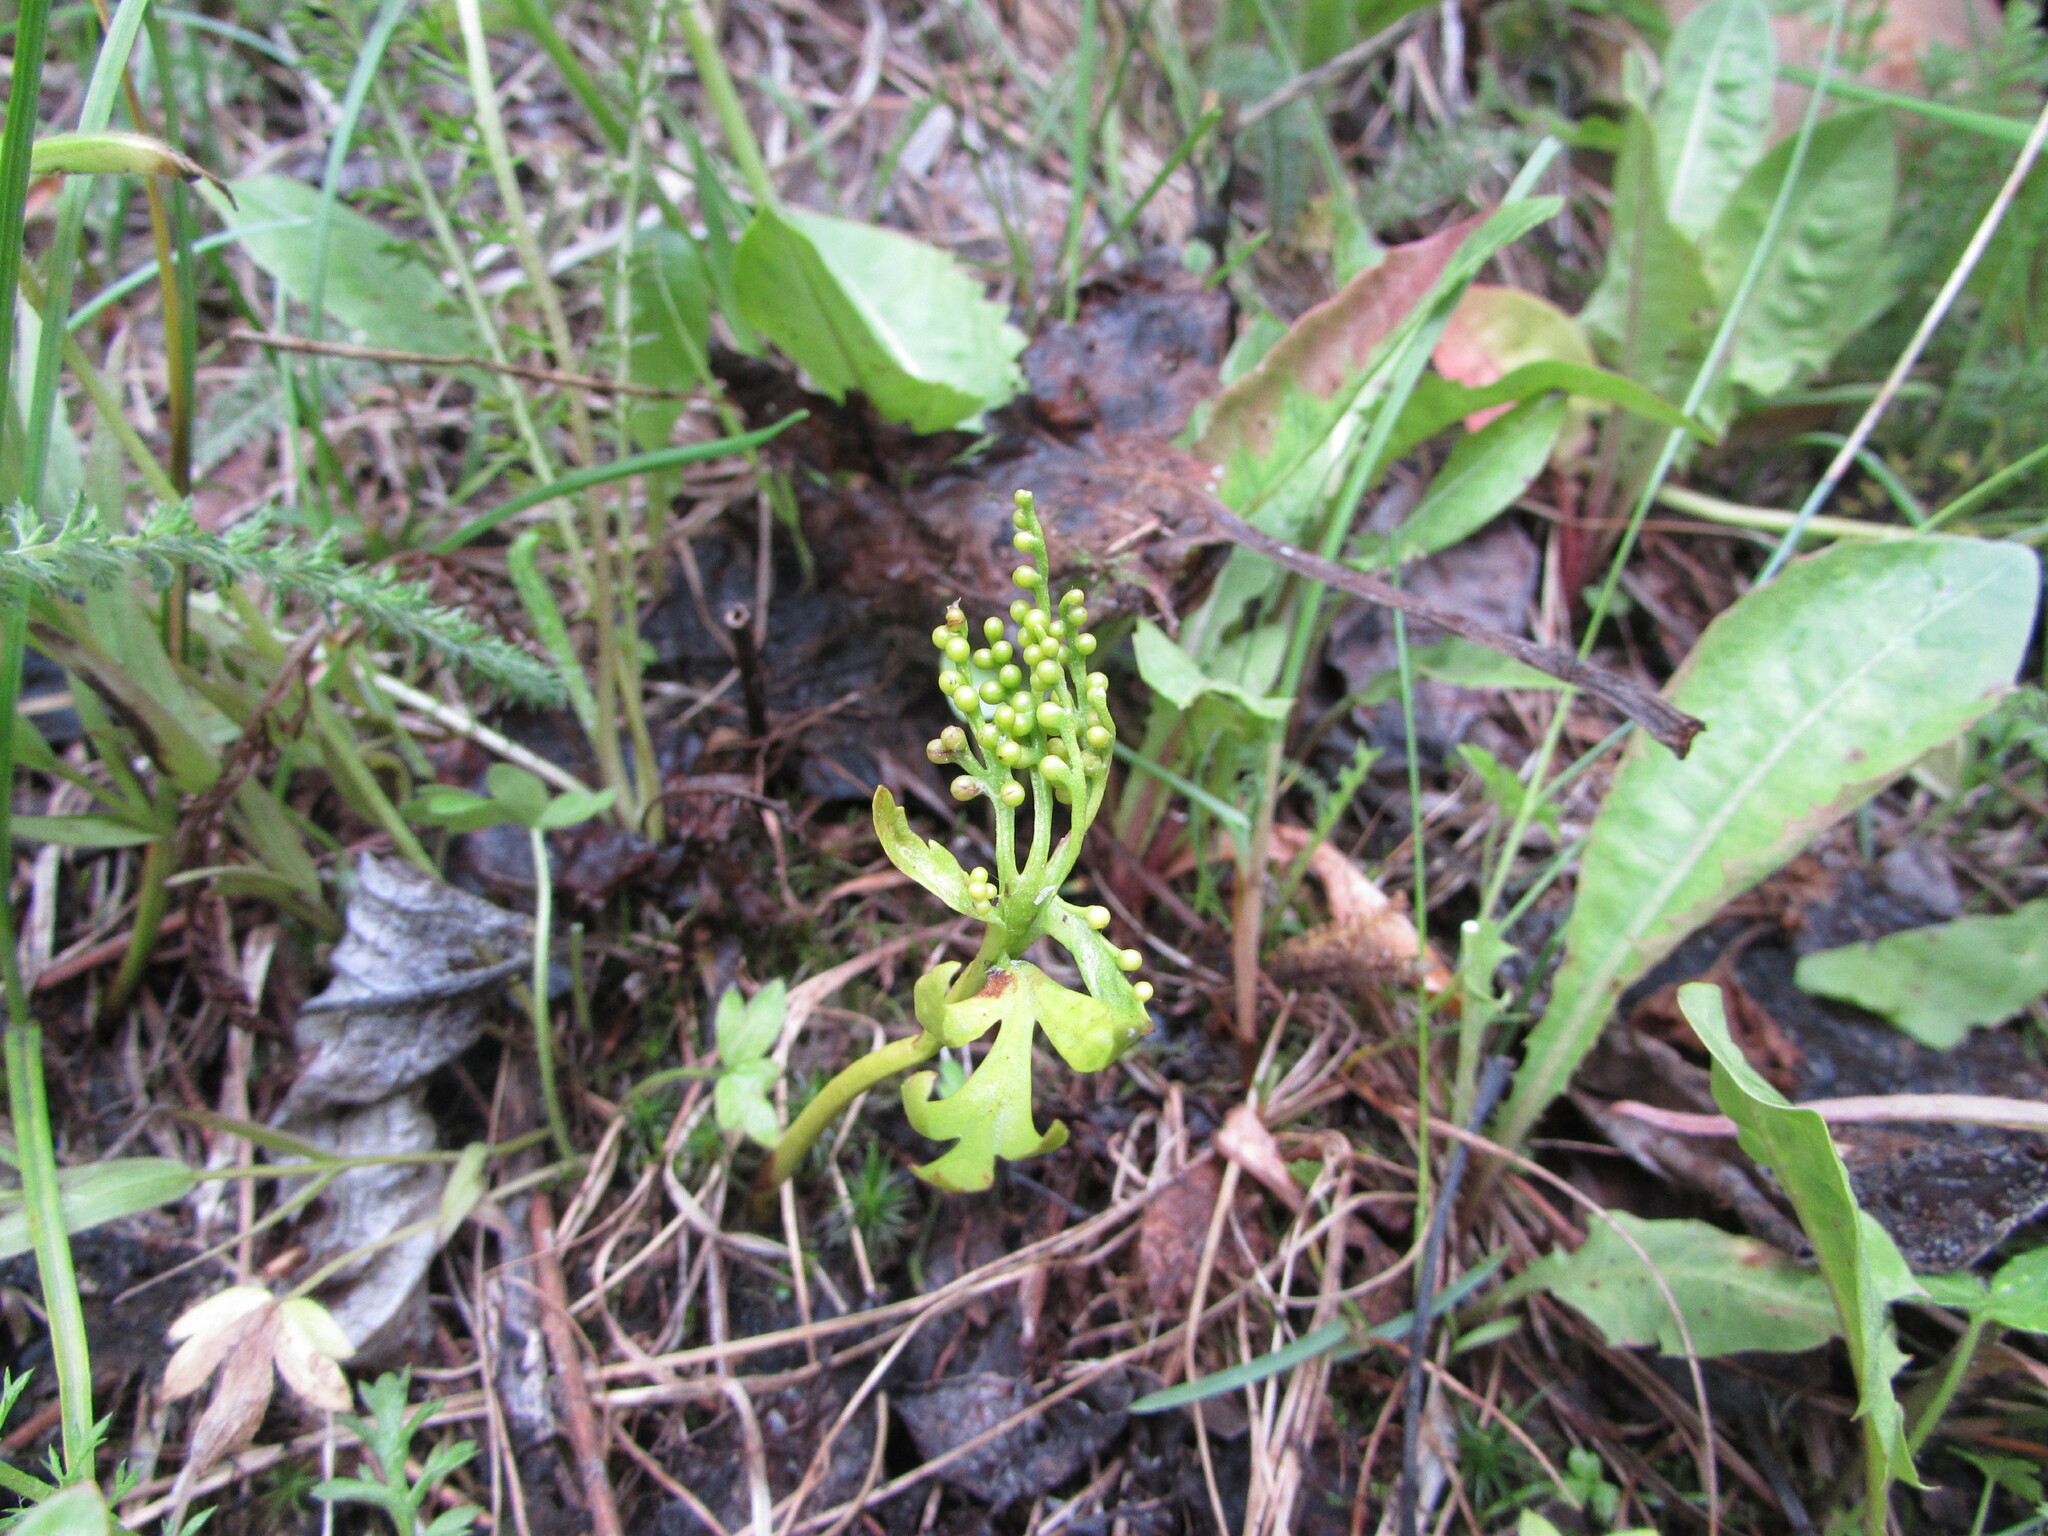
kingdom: Plantae
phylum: Tracheophyta
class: Polypodiopsida
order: Ophioglossales
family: Ophioglossaceae
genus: Botrychium
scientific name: Botrychium lanceolatum
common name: Lance-leaved moonwort
